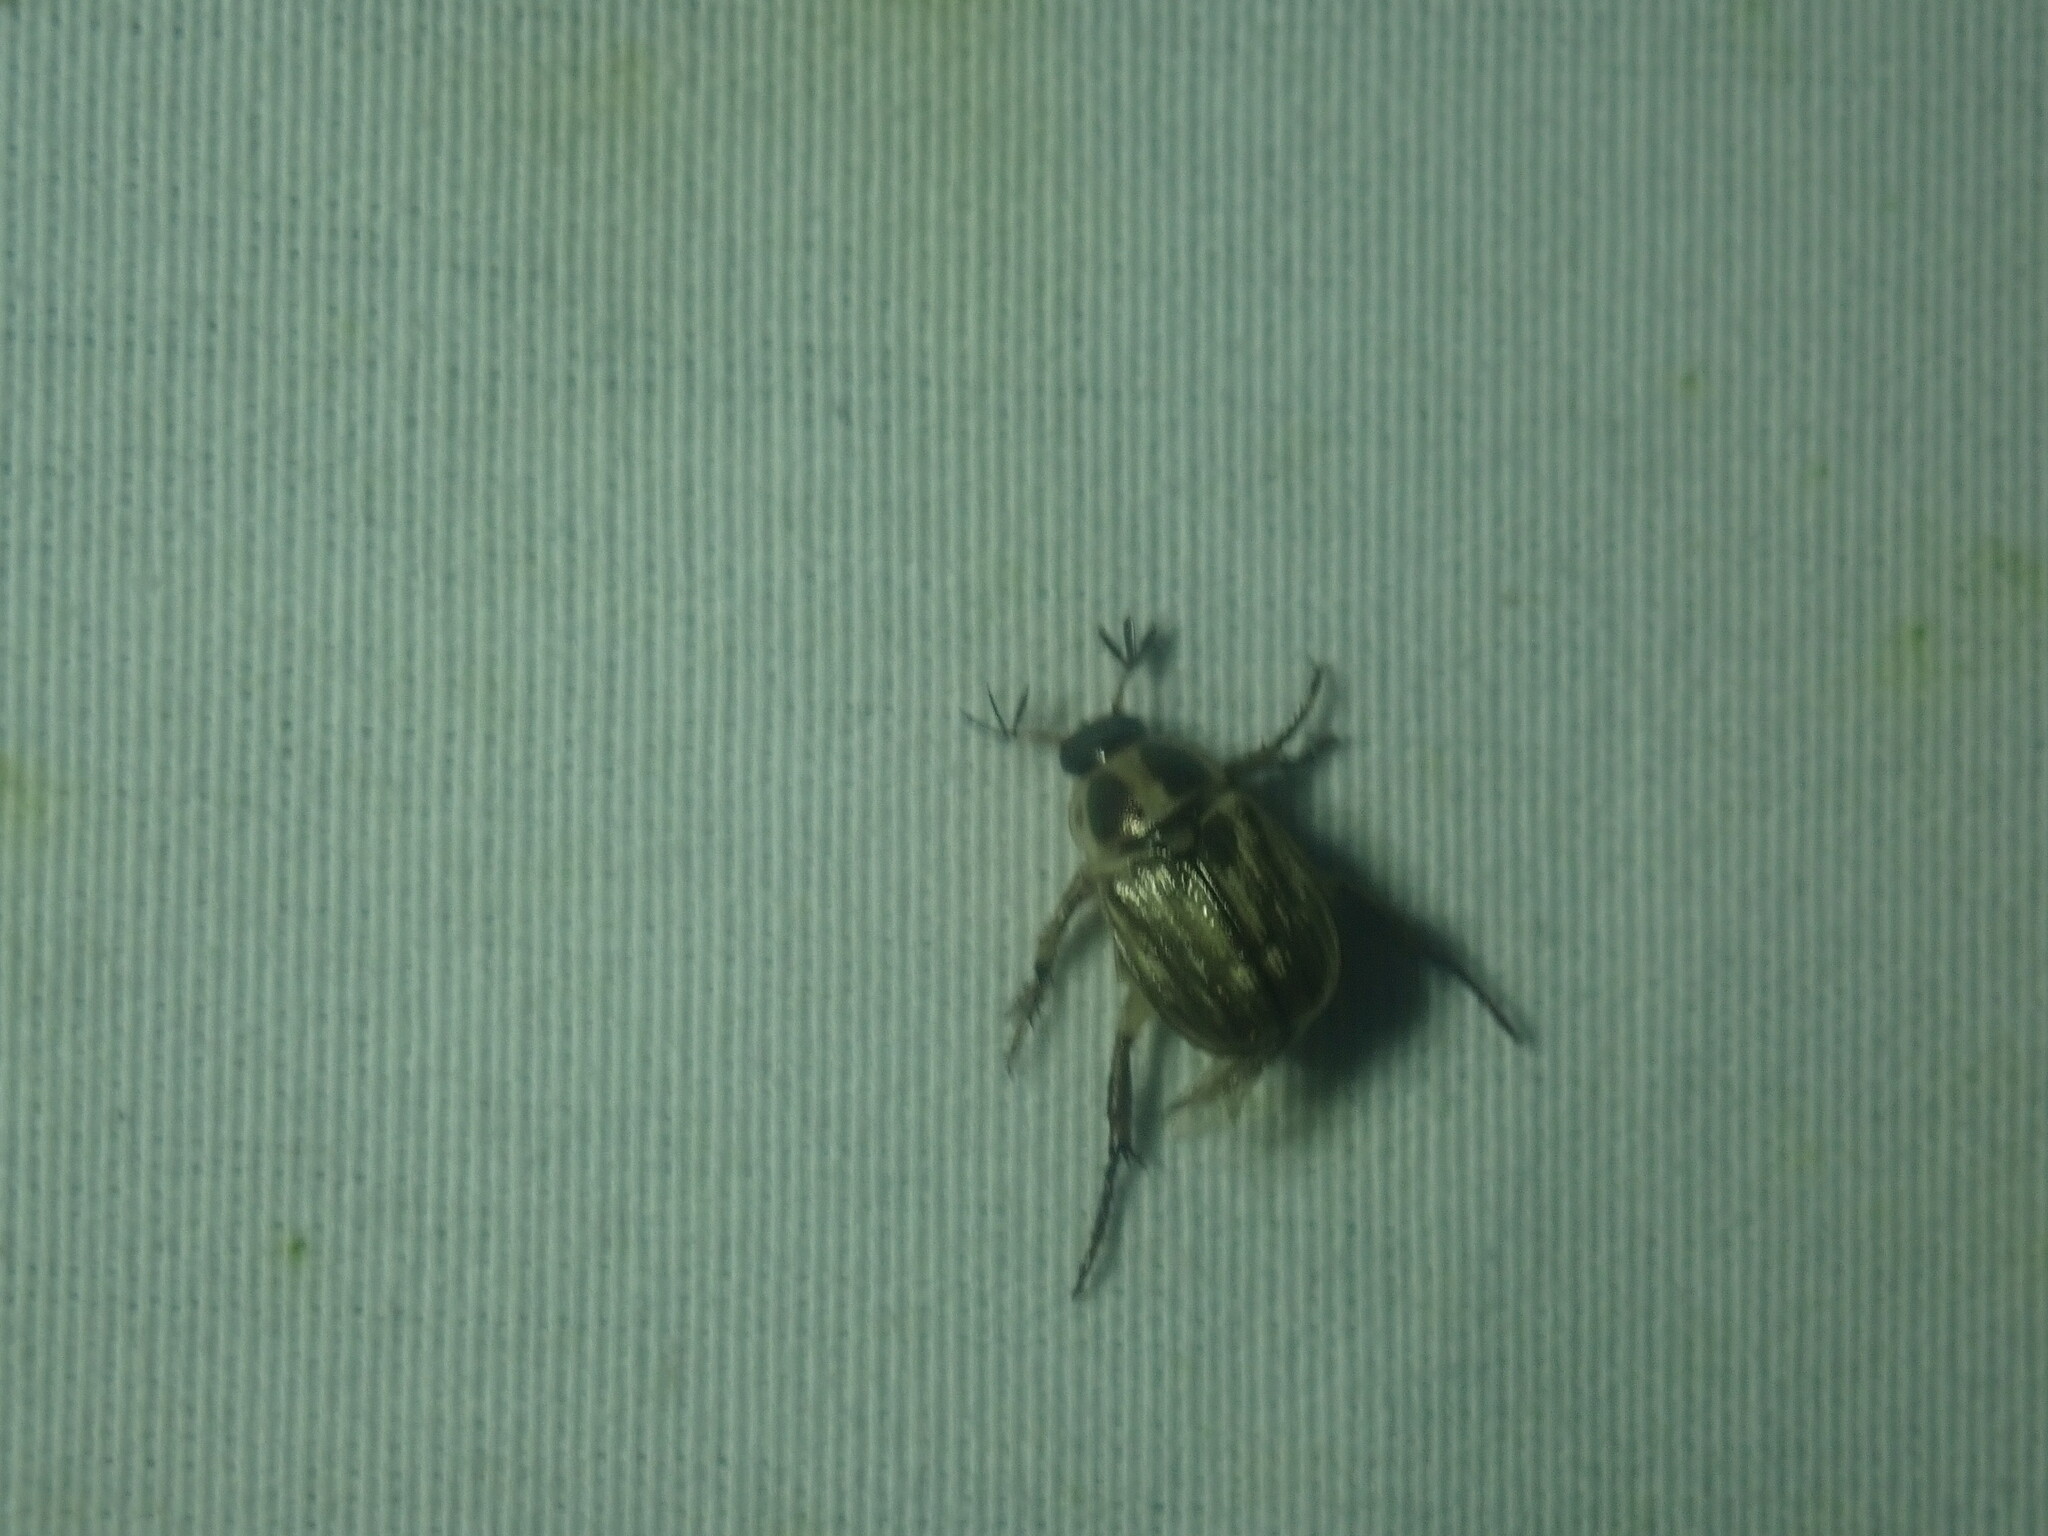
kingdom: Animalia
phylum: Arthropoda
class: Insecta
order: Coleoptera
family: Scarabaeidae
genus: Exomala
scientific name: Exomala orientalis
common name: Oriental beetle
